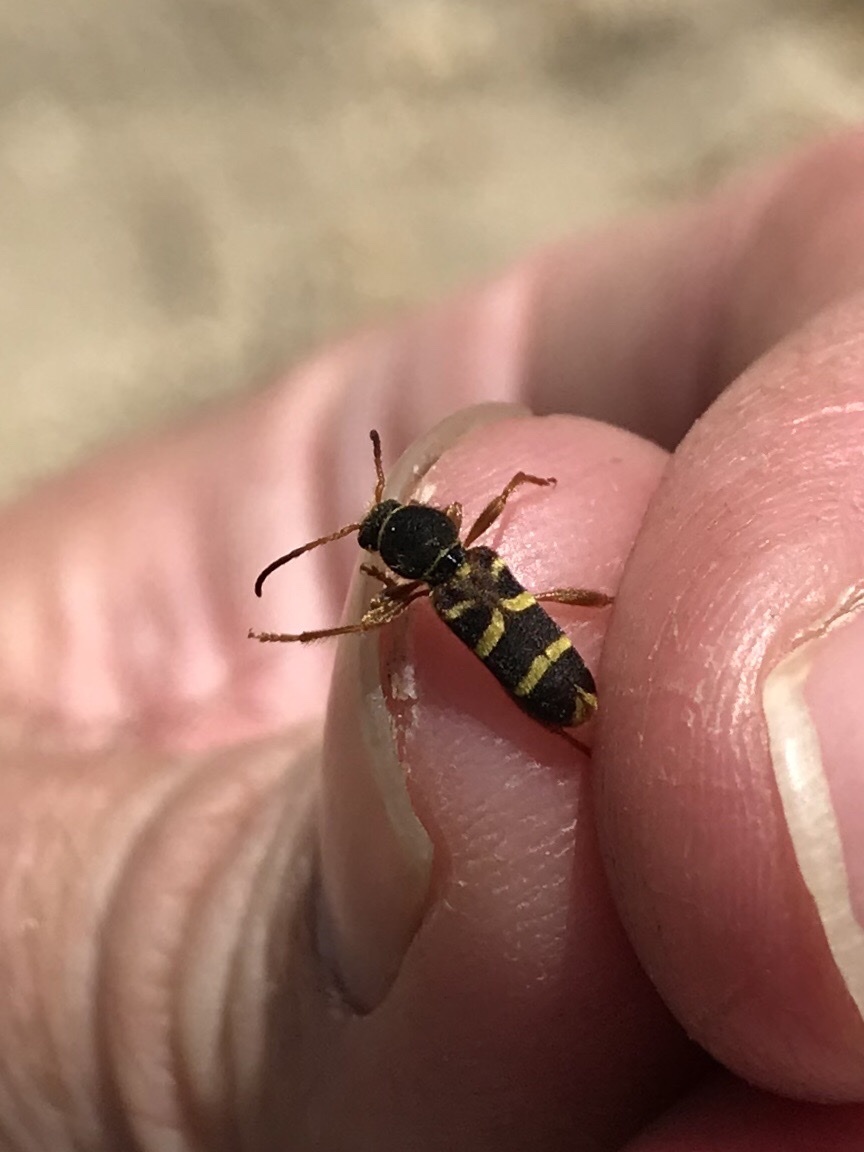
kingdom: Animalia
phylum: Arthropoda
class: Insecta
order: Coleoptera
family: Cerambycidae
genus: Clytus
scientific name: Clytus marginicollis
